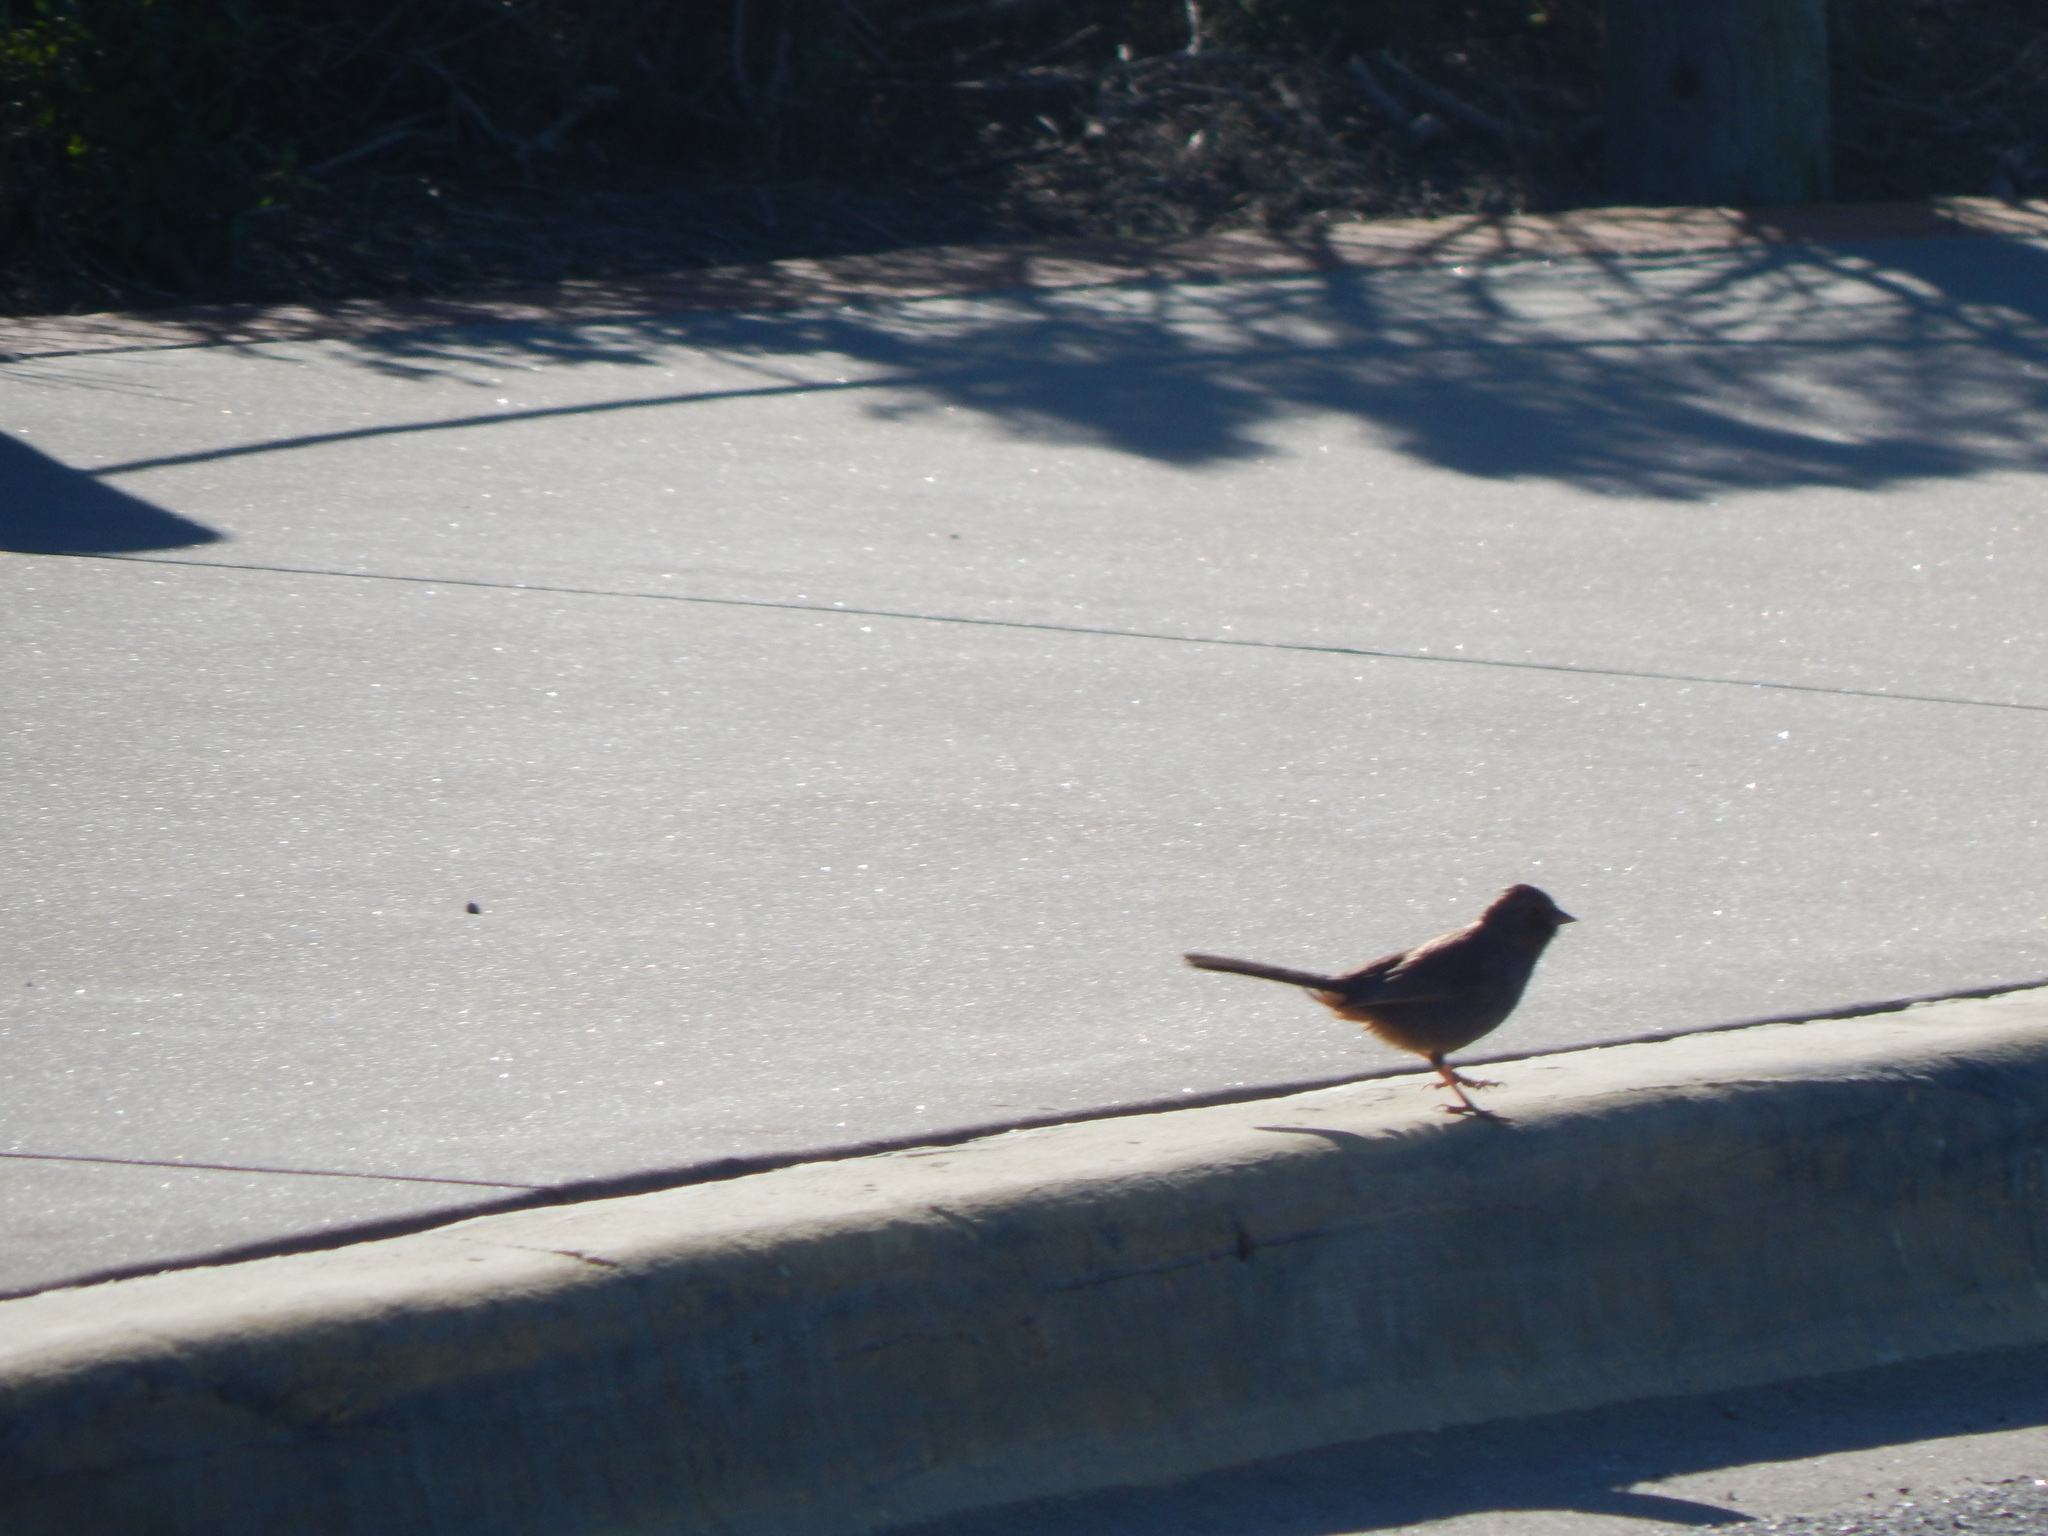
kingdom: Animalia
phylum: Chordata
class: Aves
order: Passeriformes
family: Passerellidae
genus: Melozone
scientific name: Melozone crissalis
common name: California towhee
